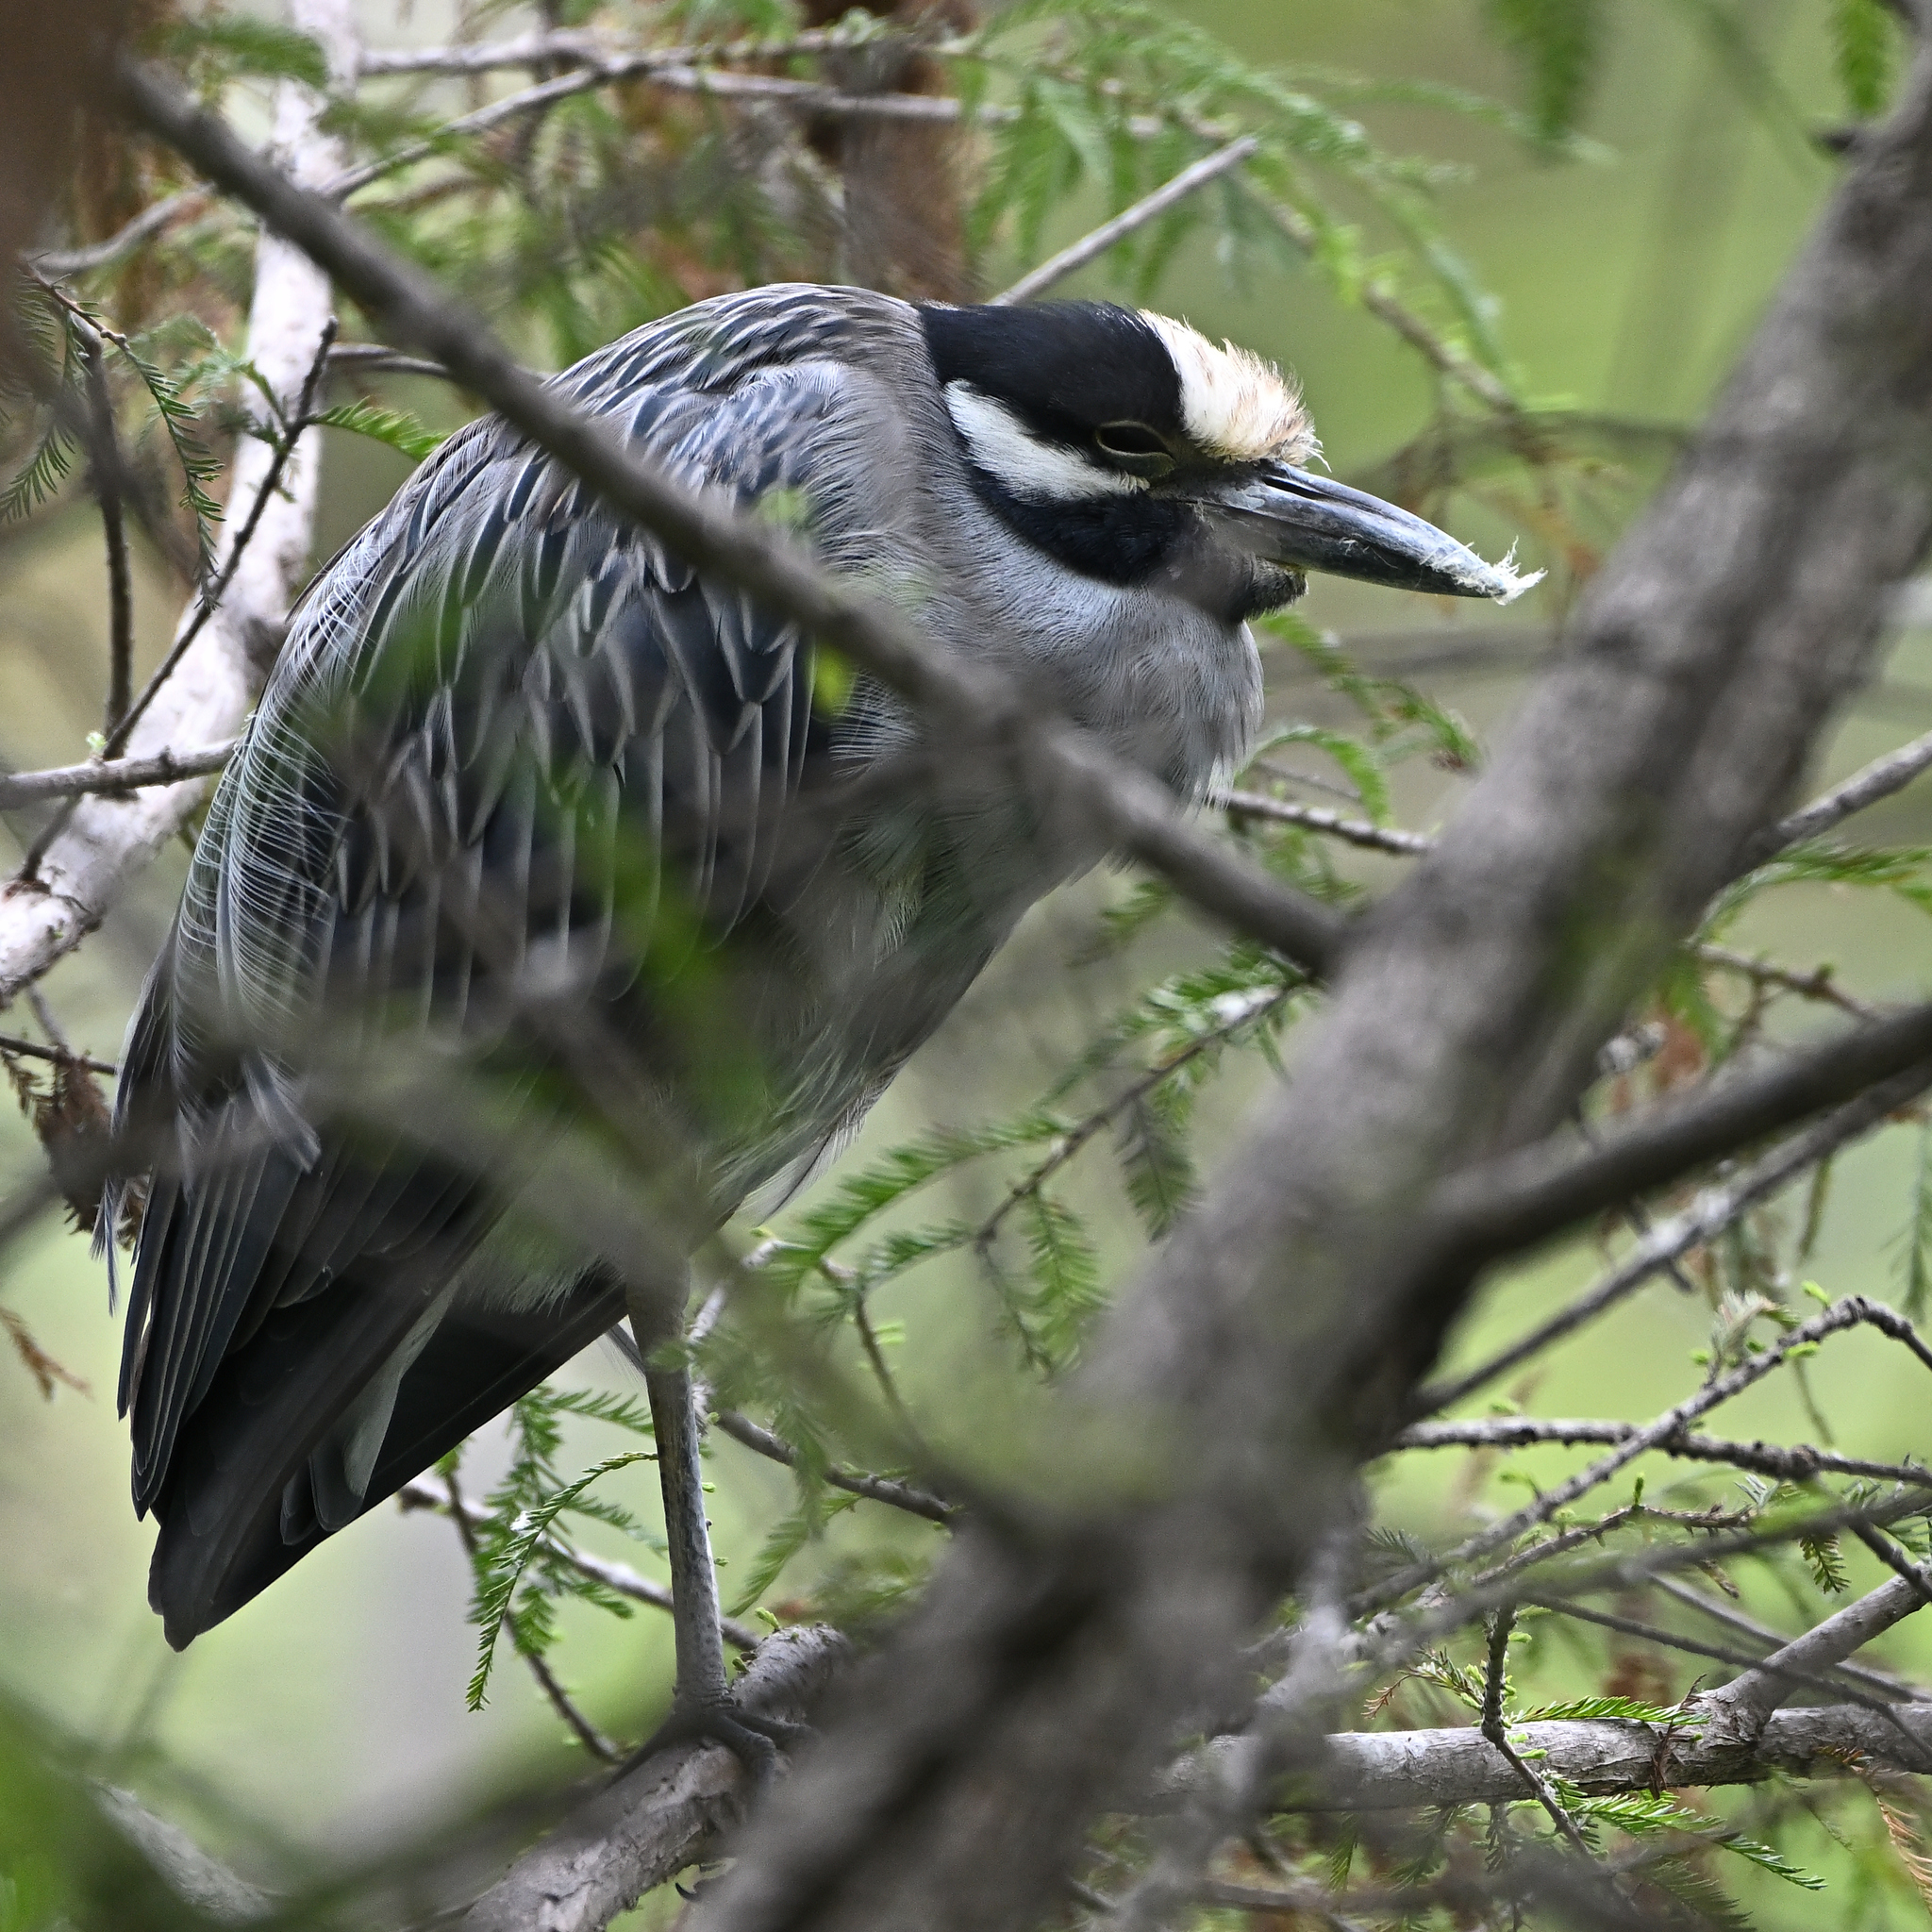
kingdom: Animalia
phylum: Chordata
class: Aves
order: Pelecaniformes
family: Ardeidae
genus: Nyctanassa
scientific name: Nyctanassa violacea
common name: Yellow-crowned night heron
